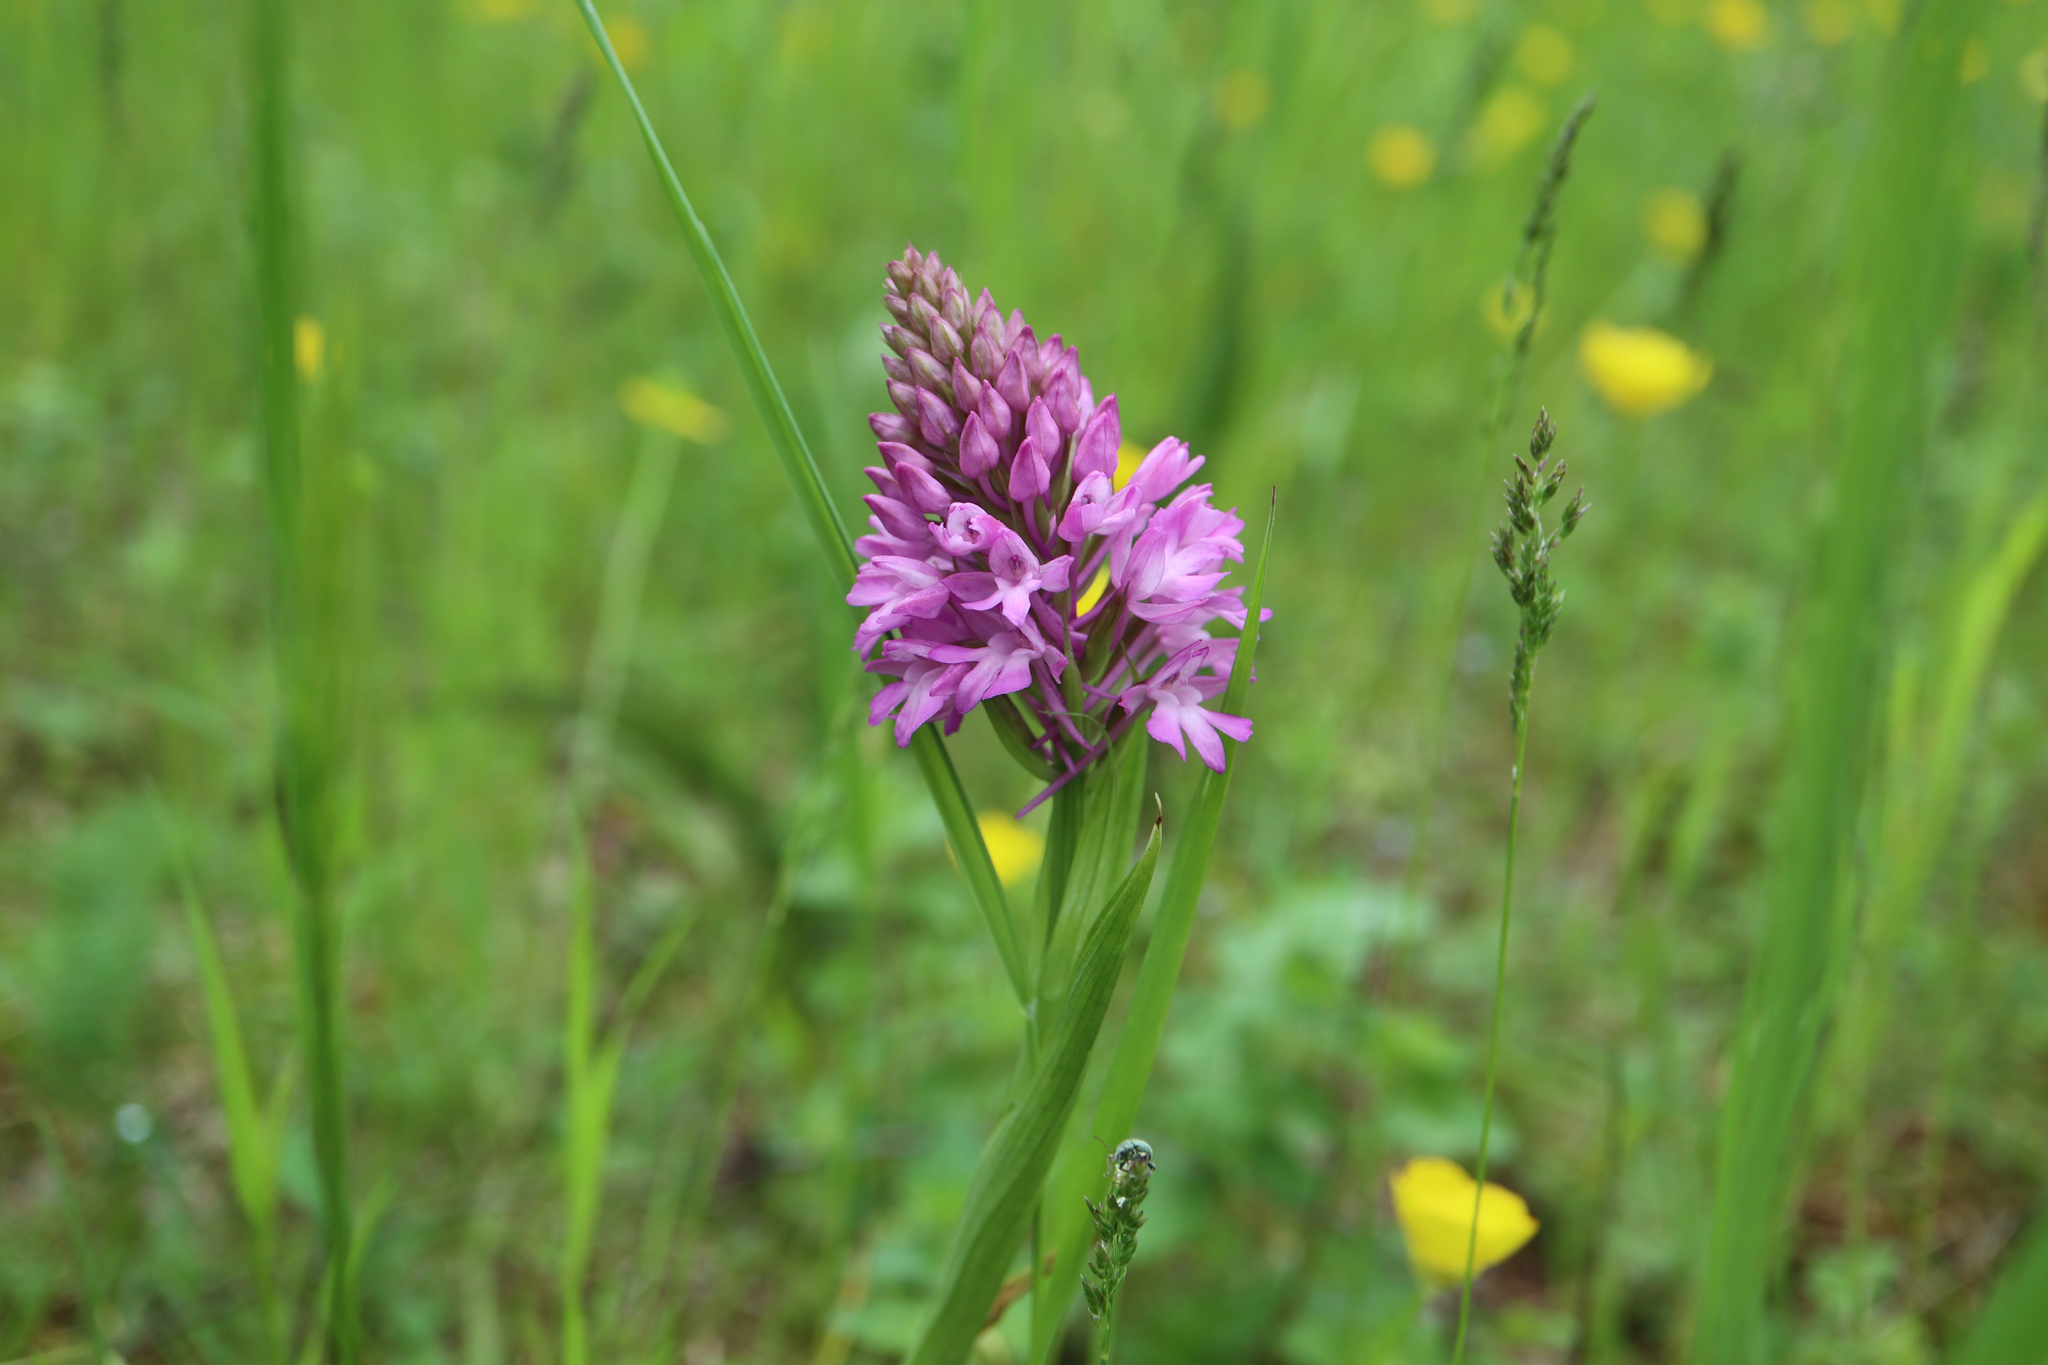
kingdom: Plantae
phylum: Tracheophyta
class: Liliopsida
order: Asparagales
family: Orchidaceae
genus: Anacamptis
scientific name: Anacamptis pyramidalis
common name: Pyramidal orchid
